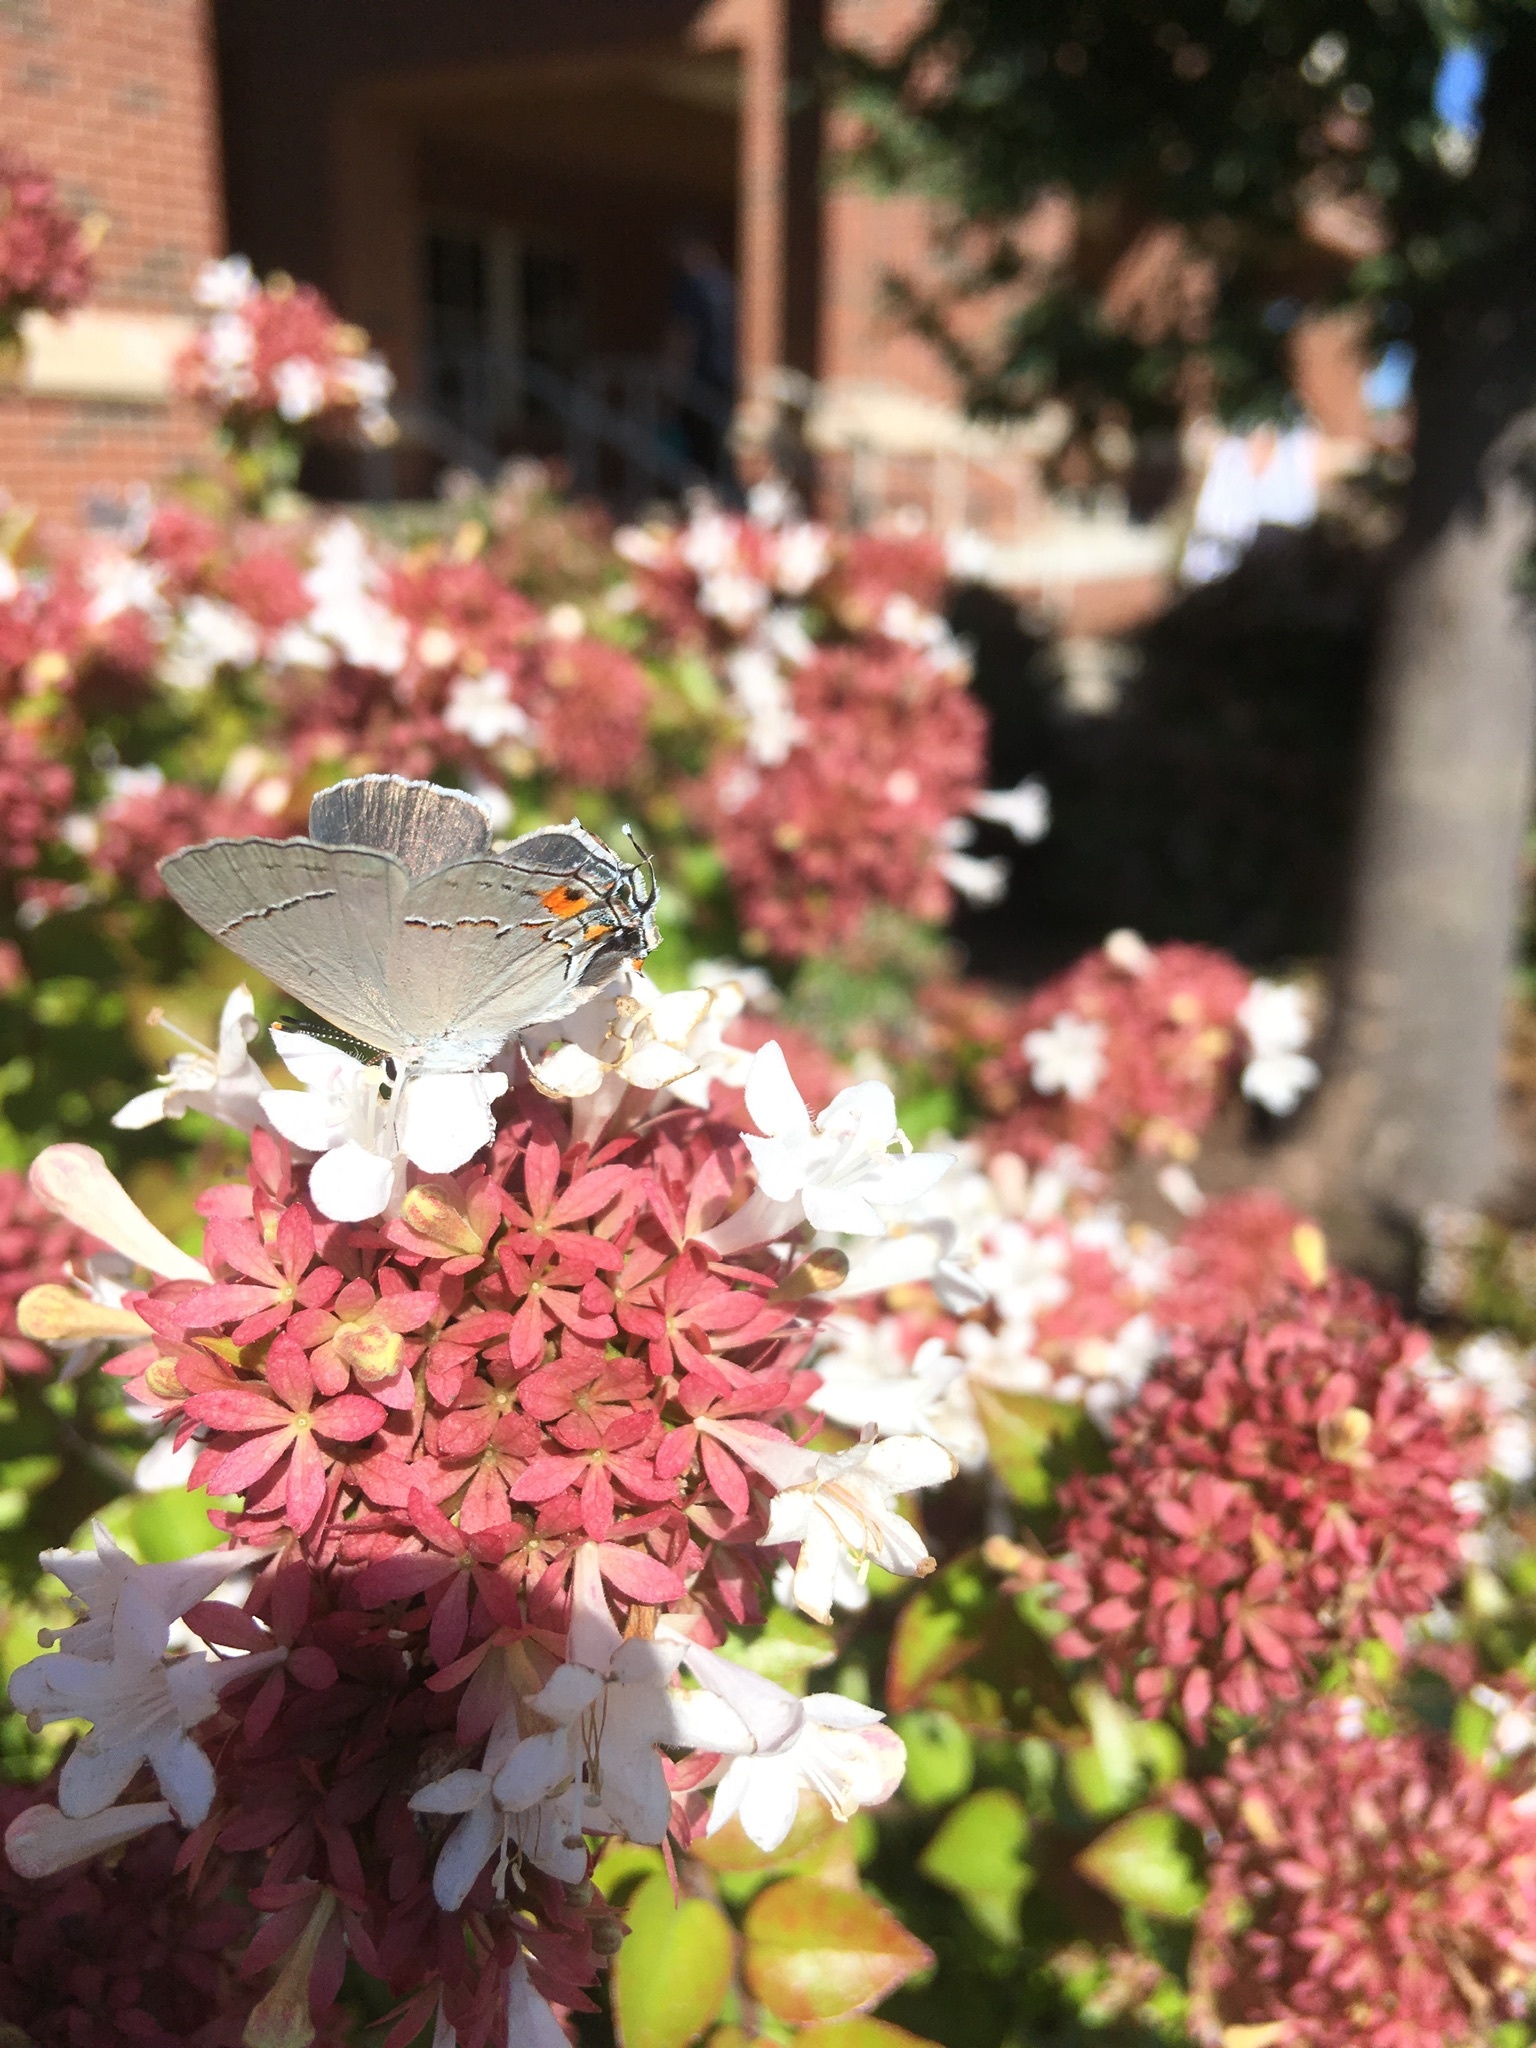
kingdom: Animalia
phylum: Arthropoda
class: Insecta
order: Lepidoptera
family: Lycaenidae
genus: Strymon
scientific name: Strymon melinus
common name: Gray hairstreak
